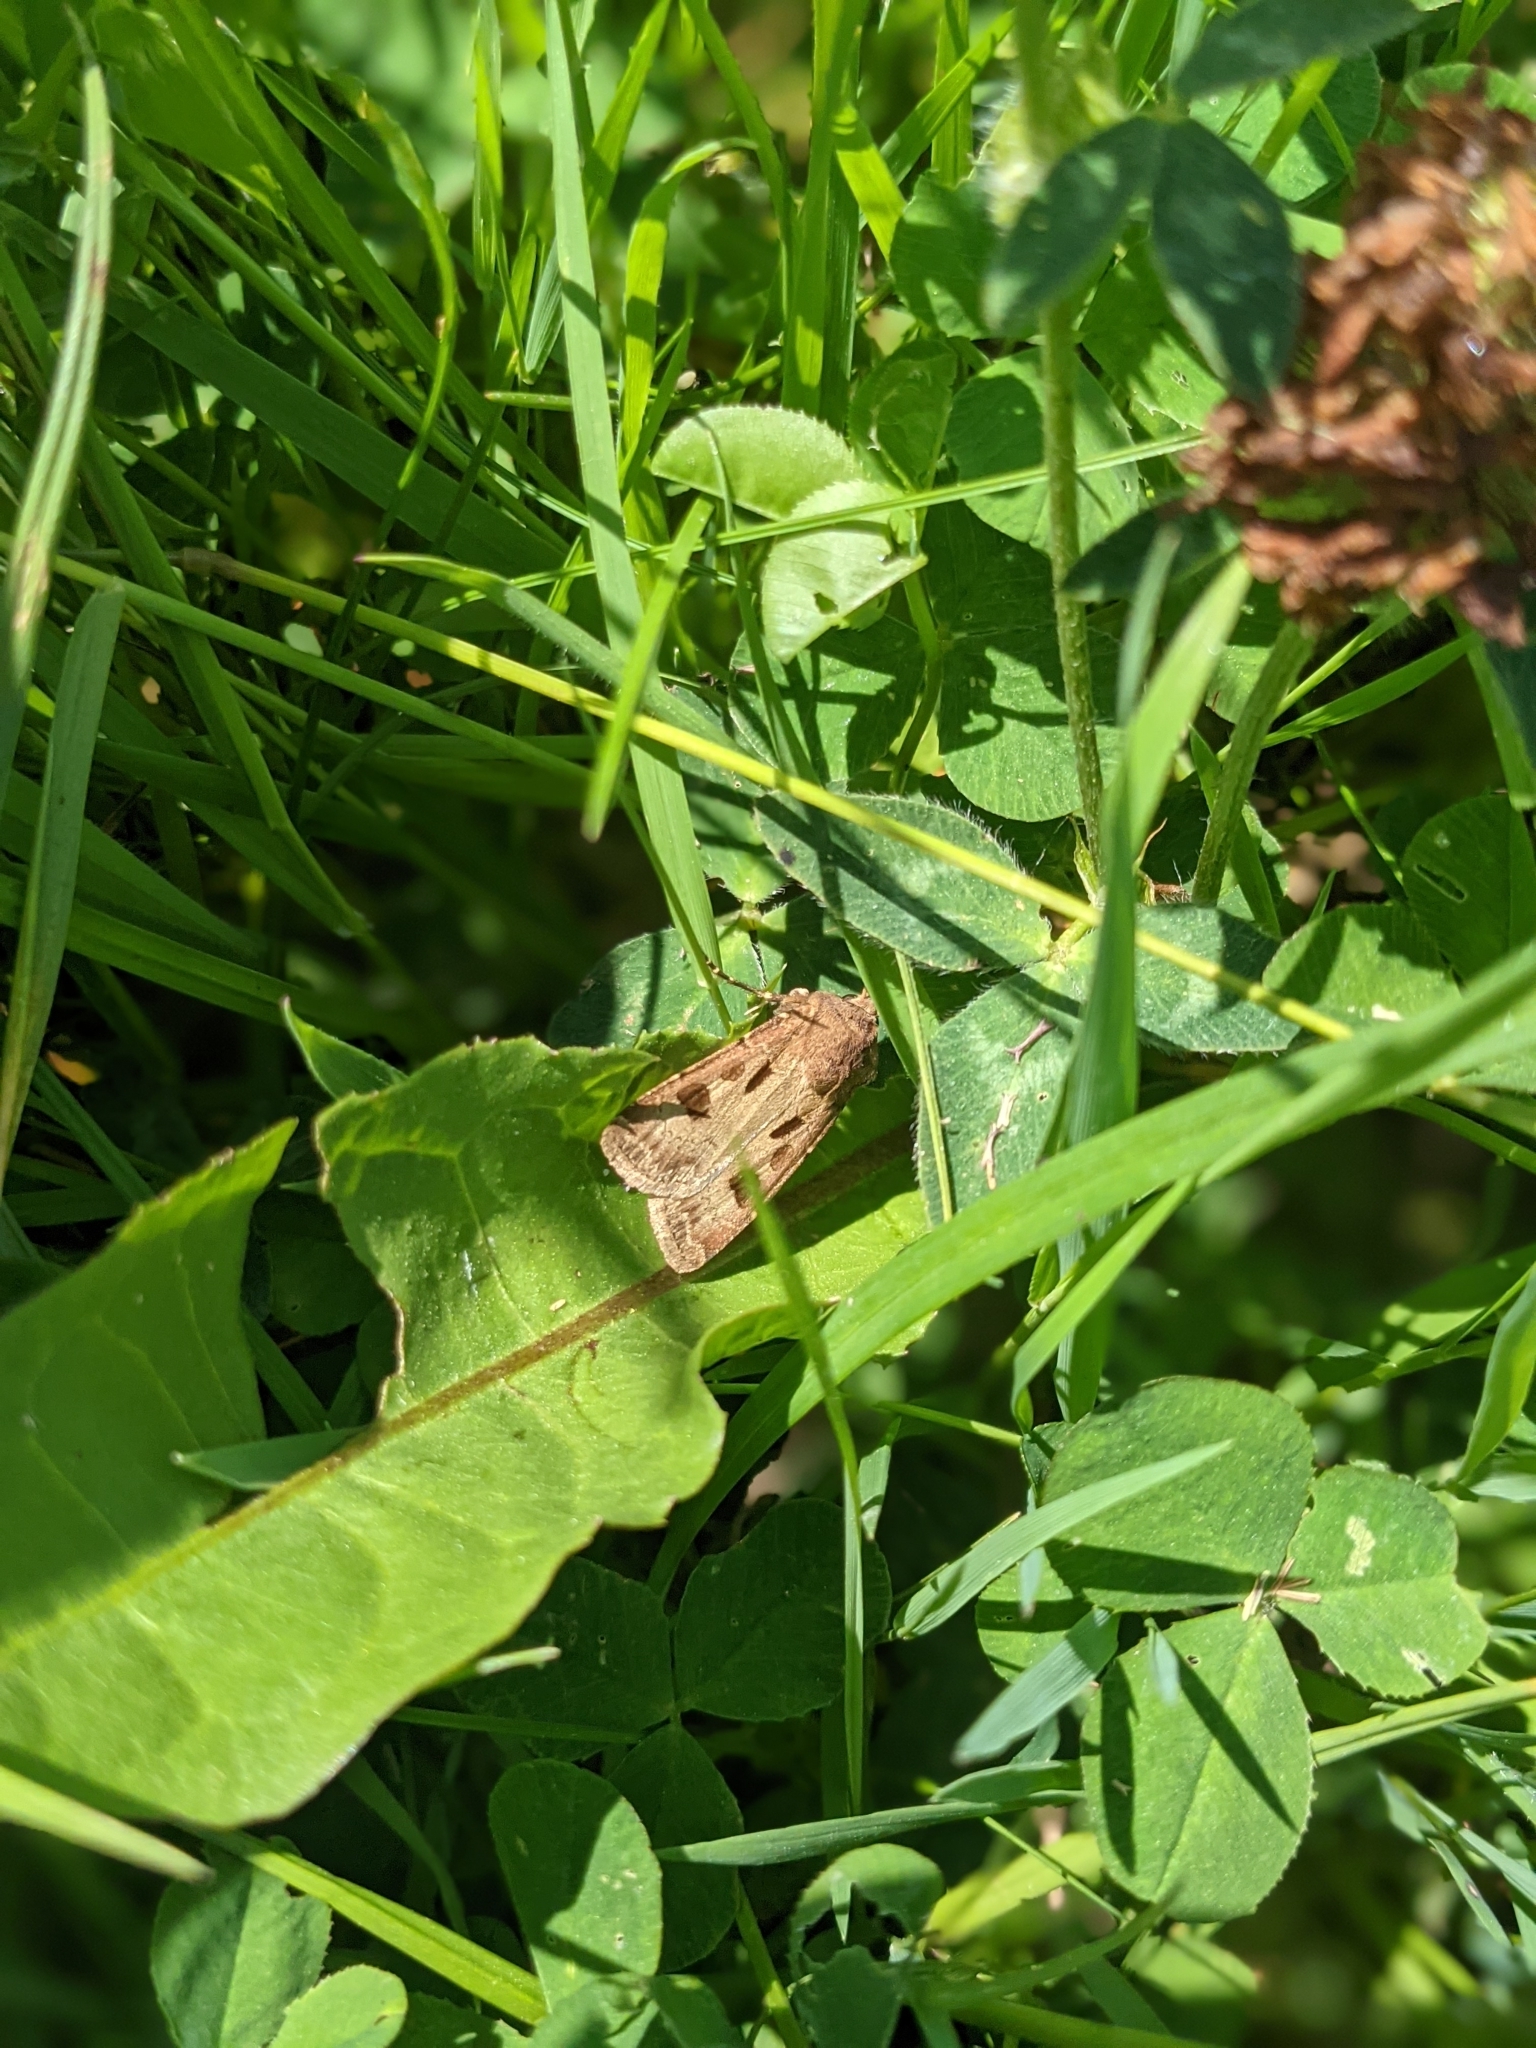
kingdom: Animalia
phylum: Arthropoda
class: Insecta
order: Lepidoptera
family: Noctuidae
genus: Agrotis
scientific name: Agrotis exclamationis
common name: Heart and dart
